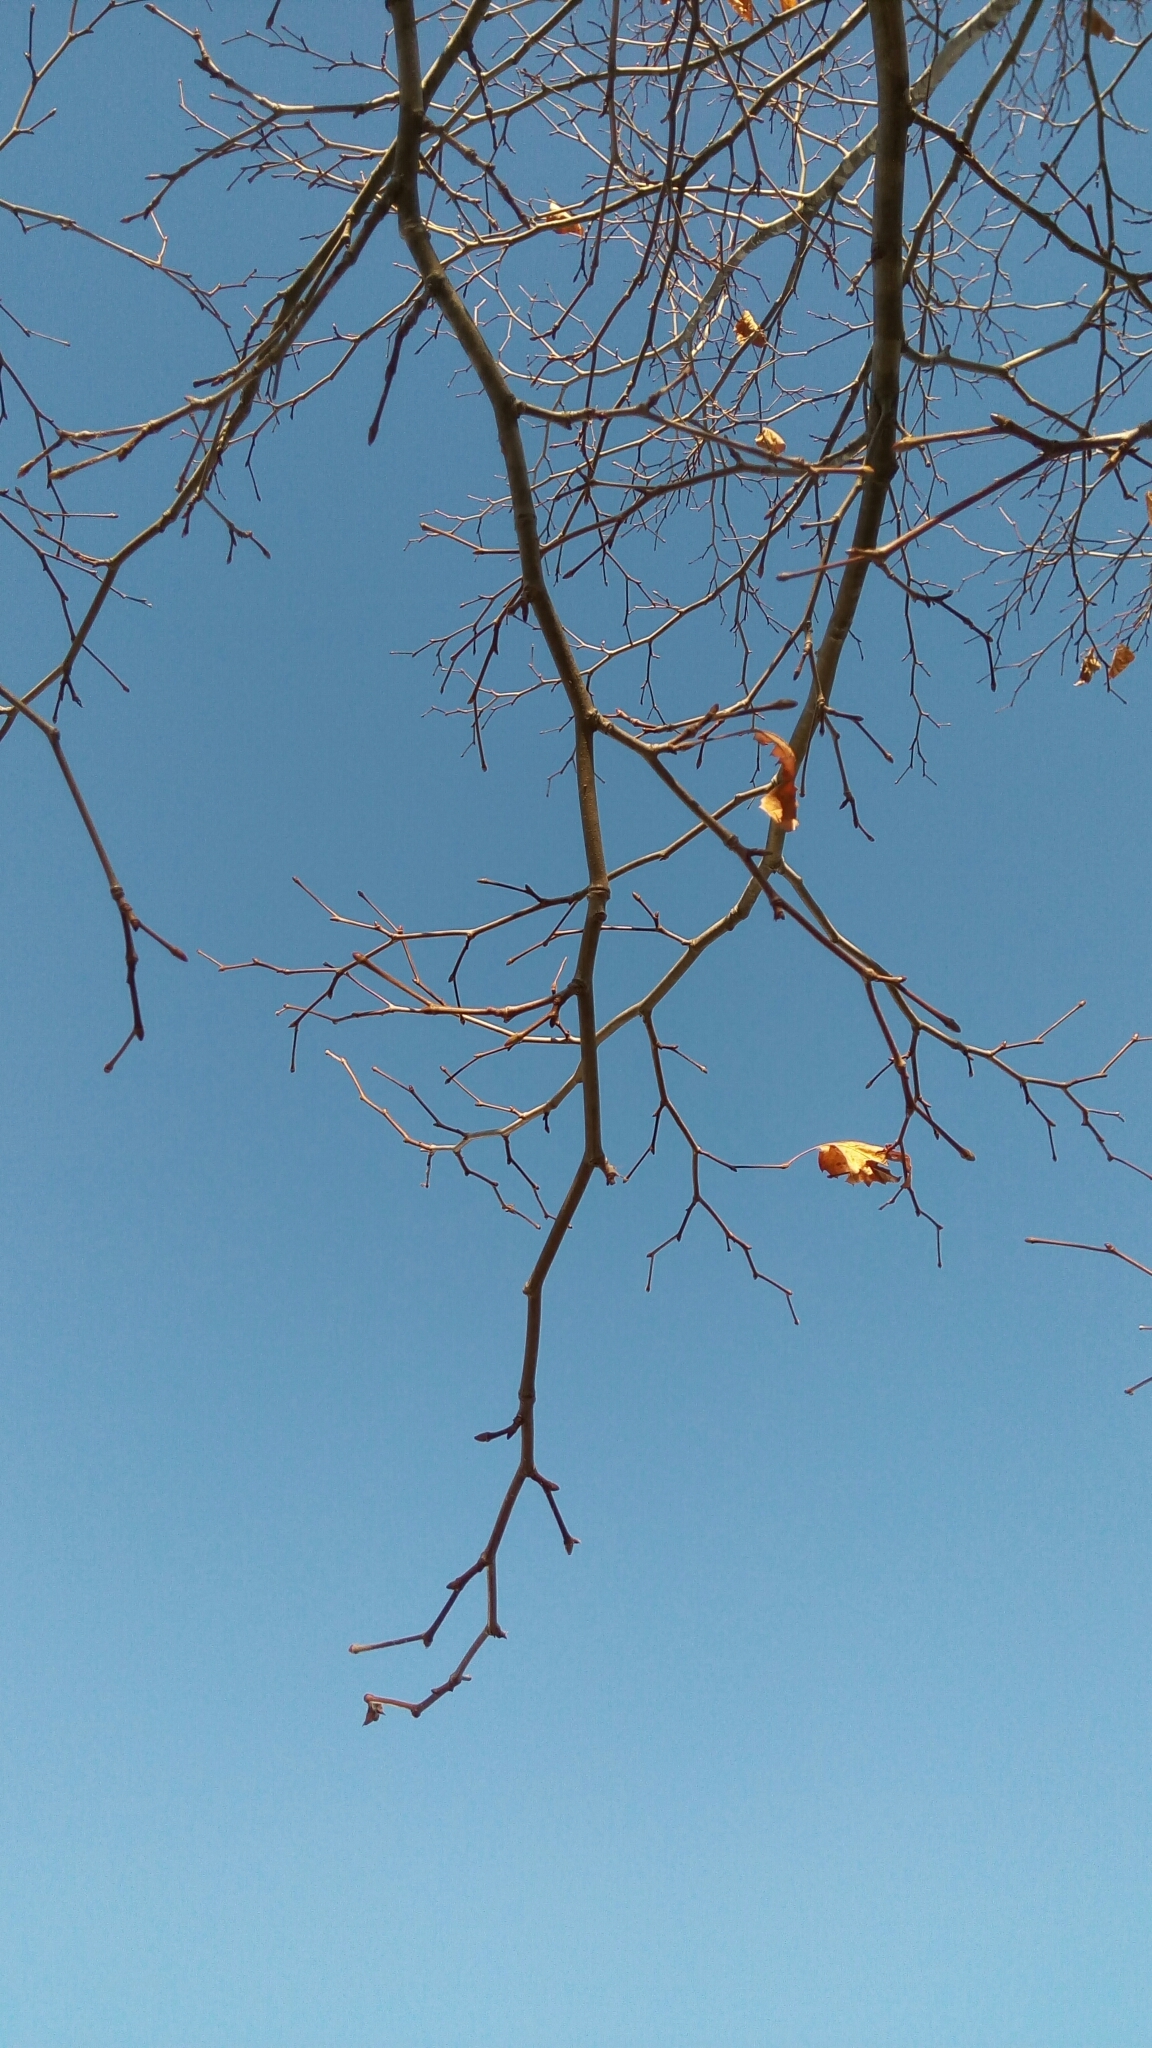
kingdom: Plantae
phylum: Tracheophyta
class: Magnoliopsida
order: Proteales
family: Platanaceae
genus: Platanus
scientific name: Platanus occidentalis
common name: American sycamore
